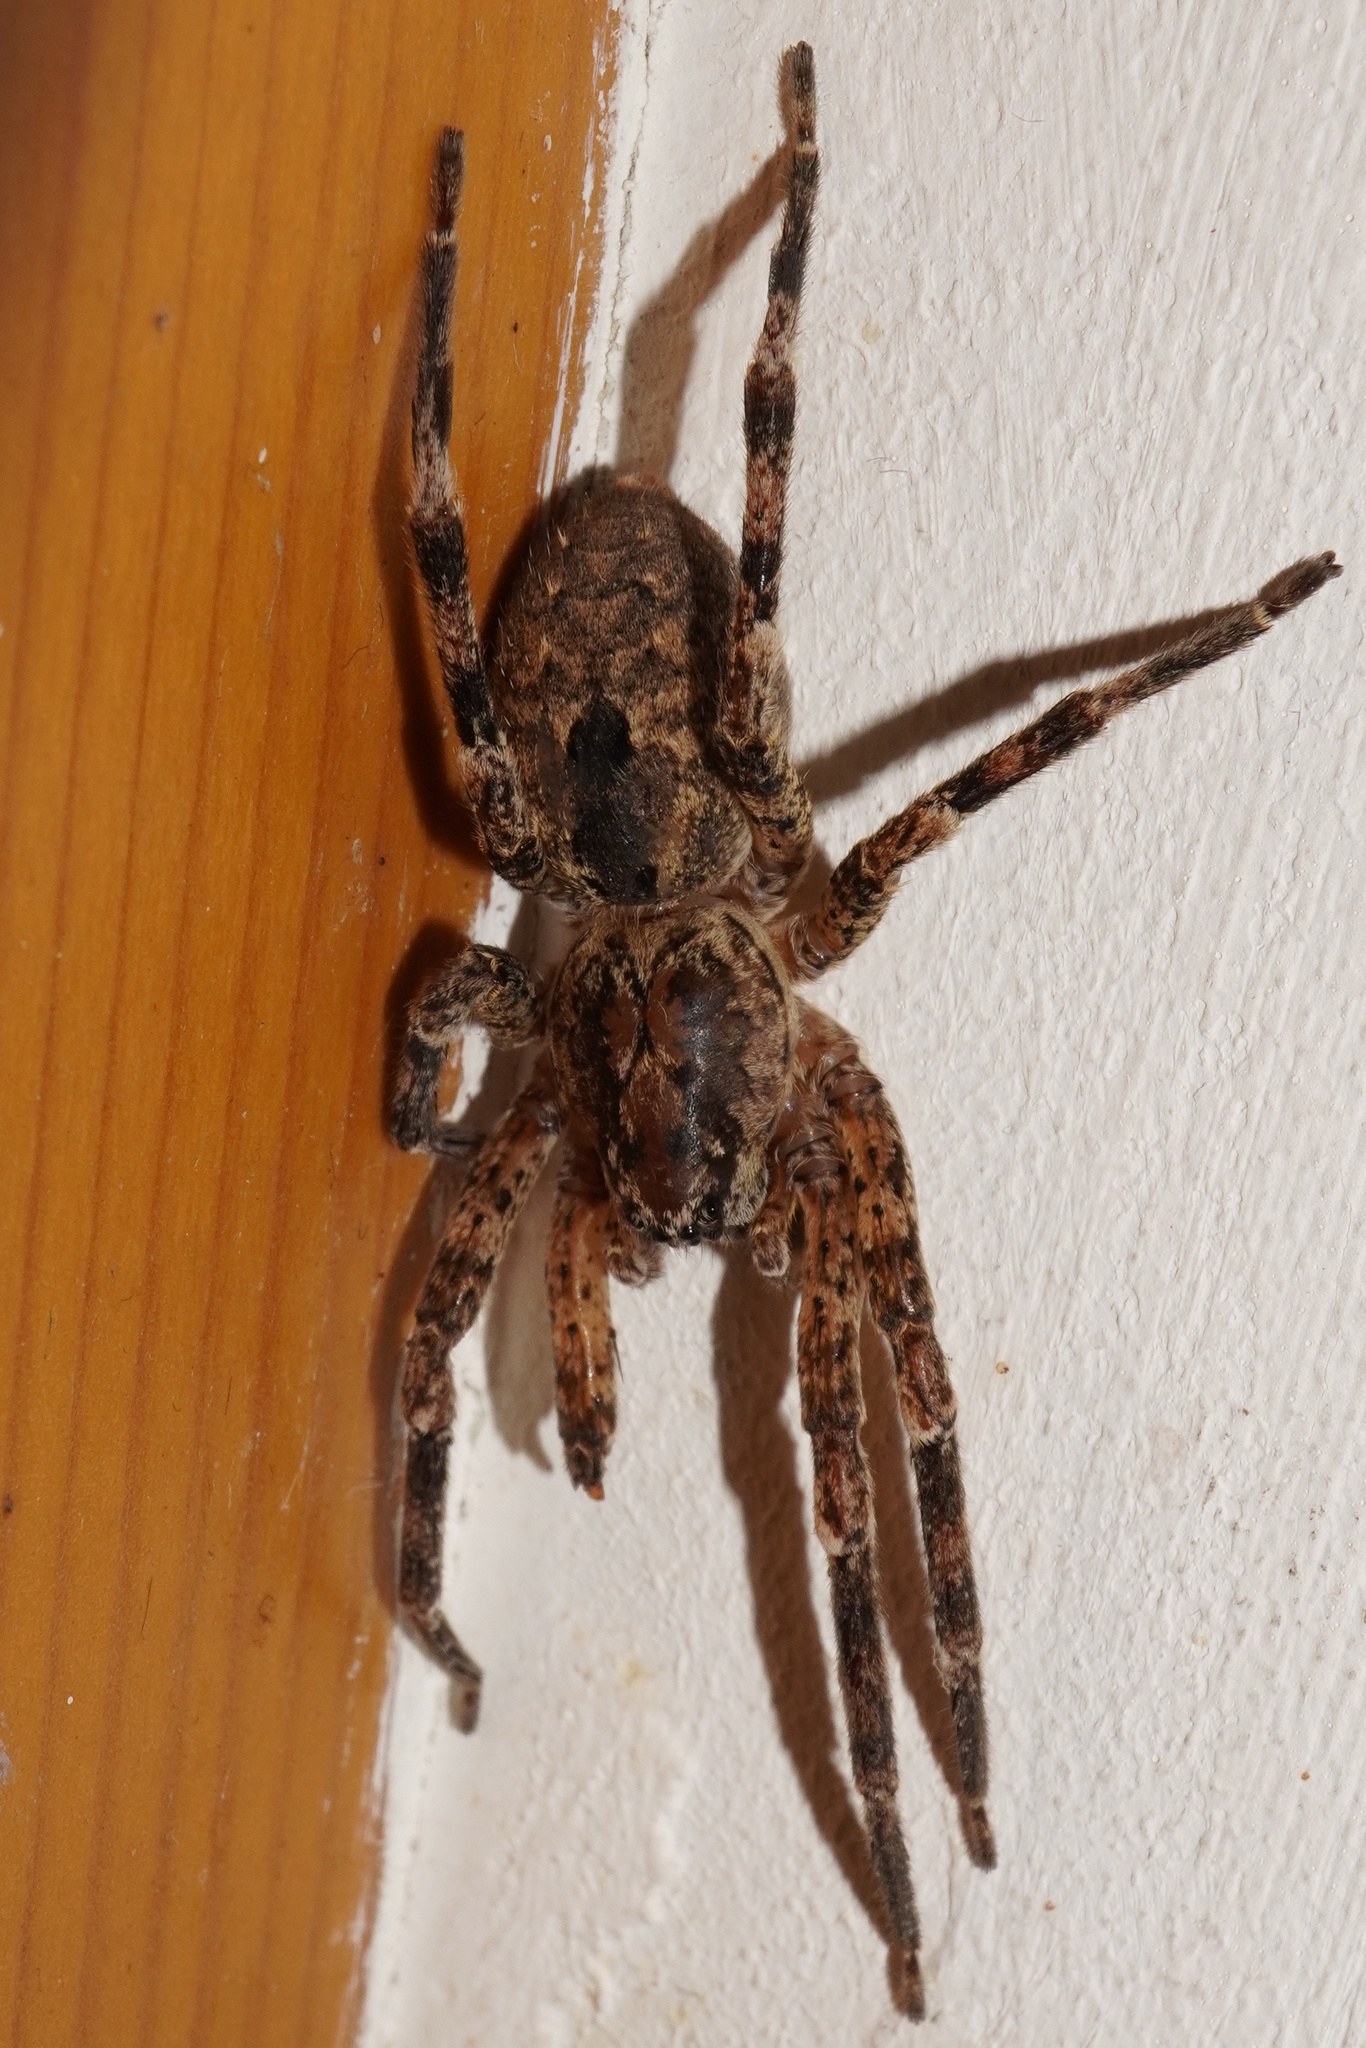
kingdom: Animalia
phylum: Arthropoda
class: Arachnida
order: Araneae
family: Zoropsidae
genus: Zoropsis
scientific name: Zoropsis spinimana
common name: Zoropsid spider
